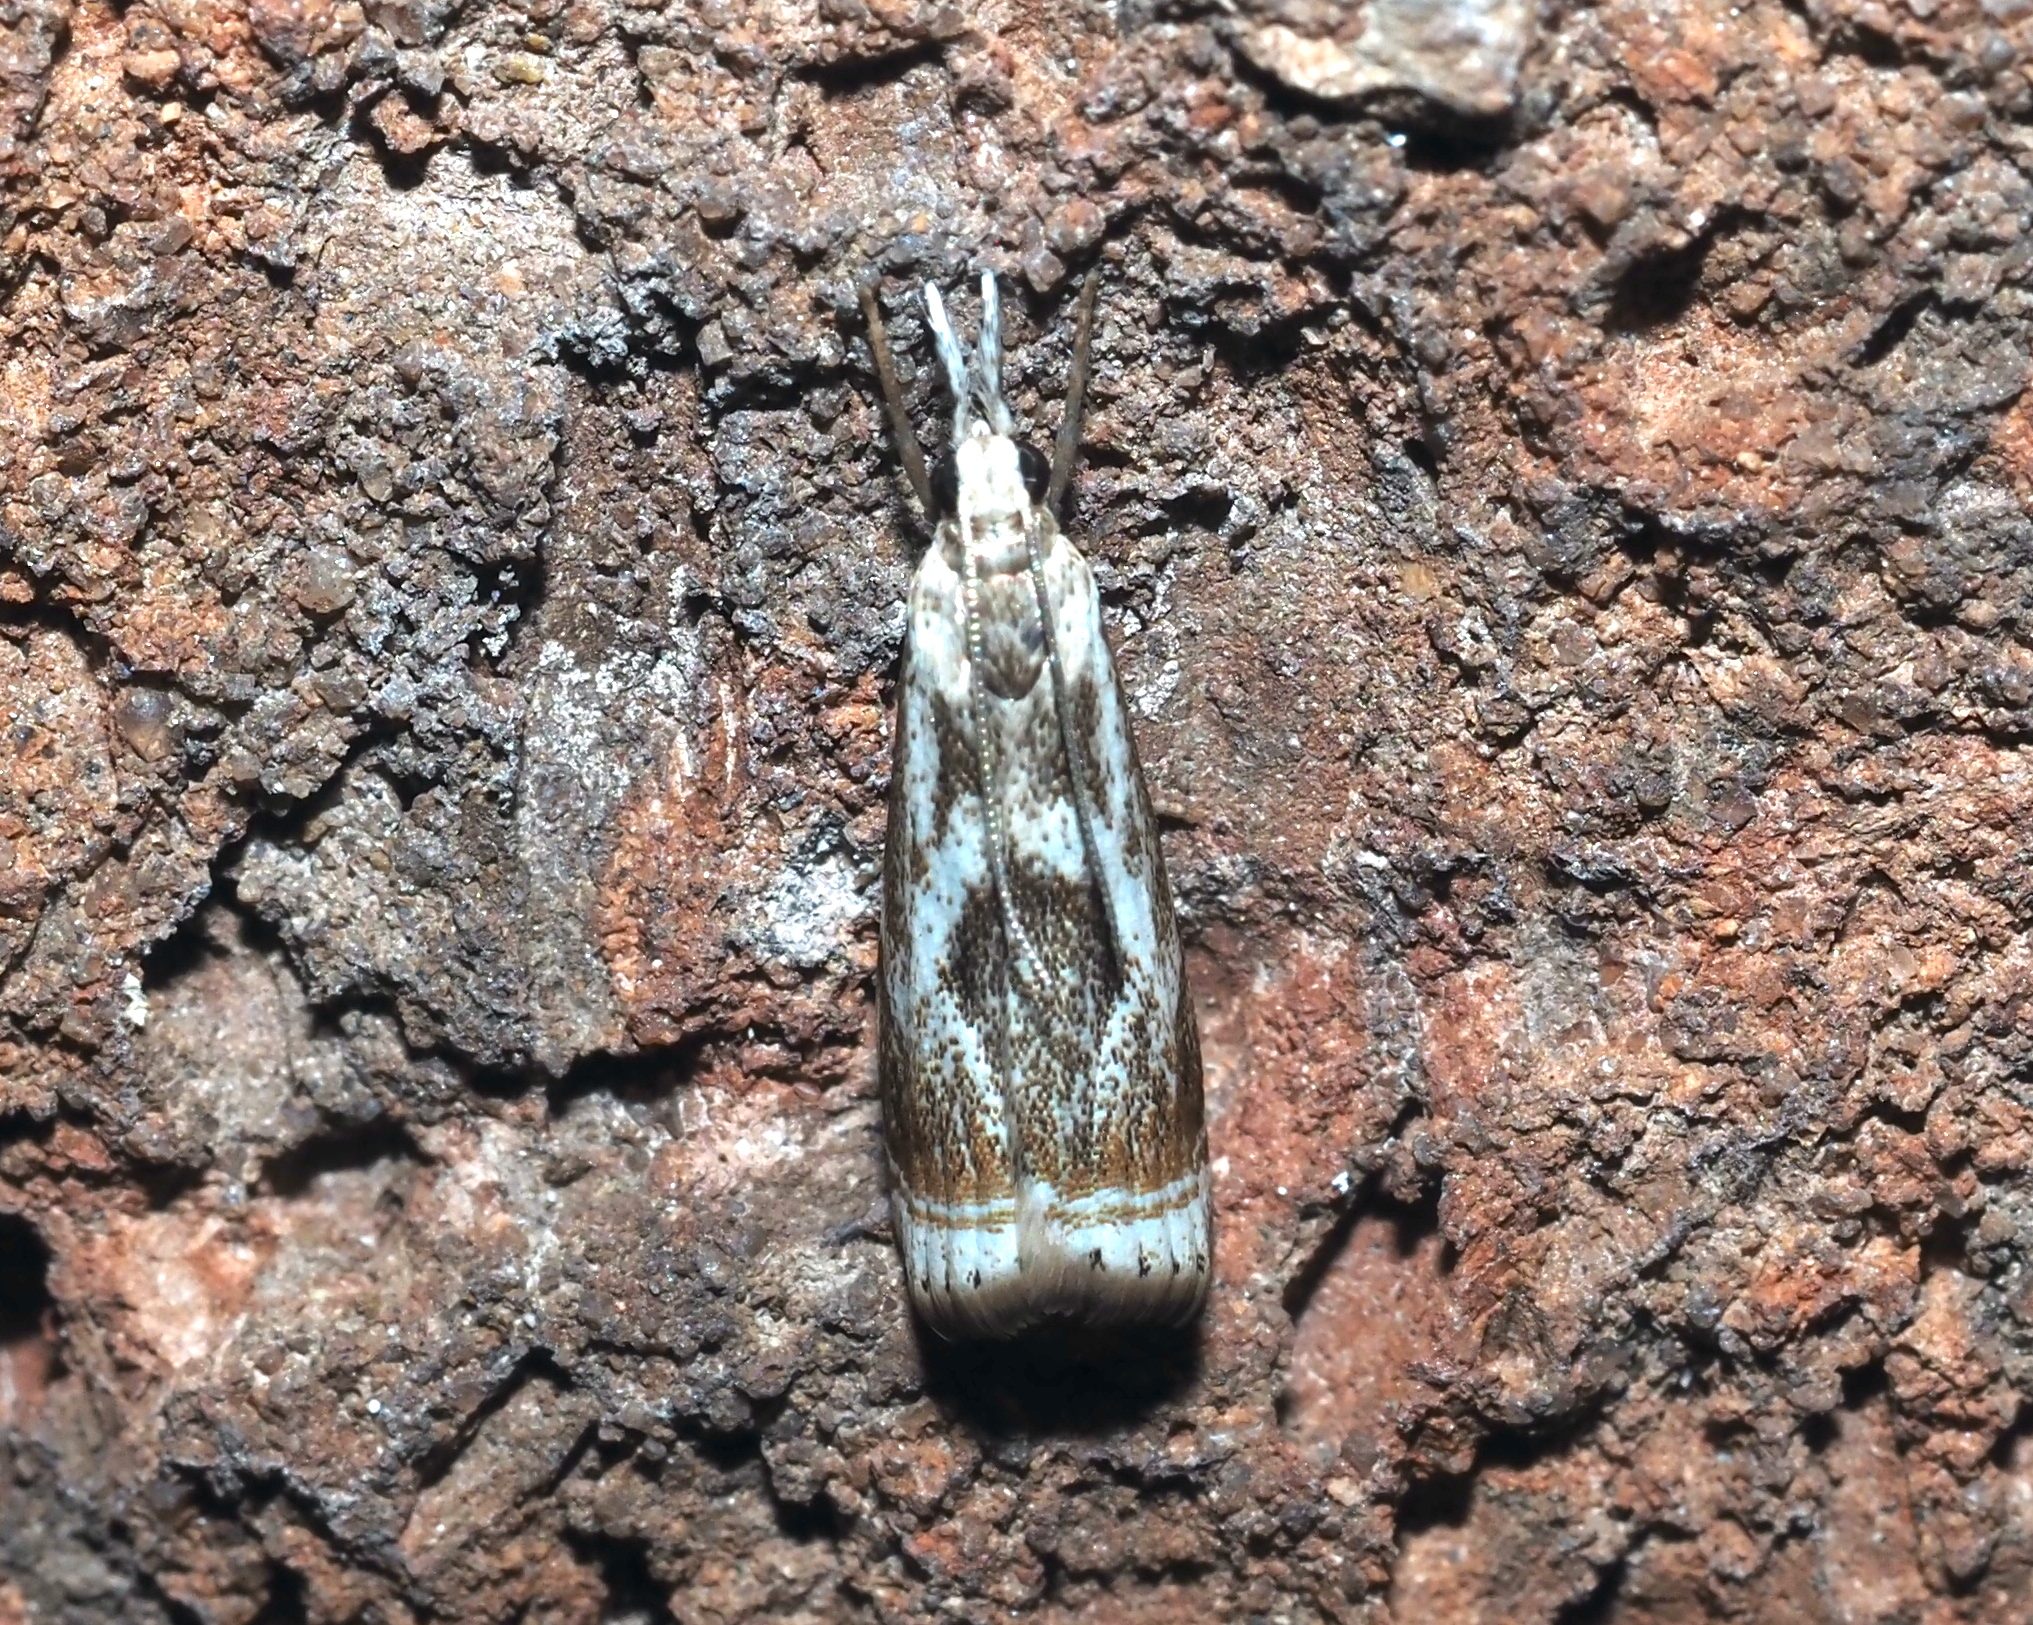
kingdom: Animalia
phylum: Arthropoda
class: Insecta
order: Lepidoptera
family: Crambidae
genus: Microcrambus
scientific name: Microcrambus elegans
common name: Elegant grass-veneer
